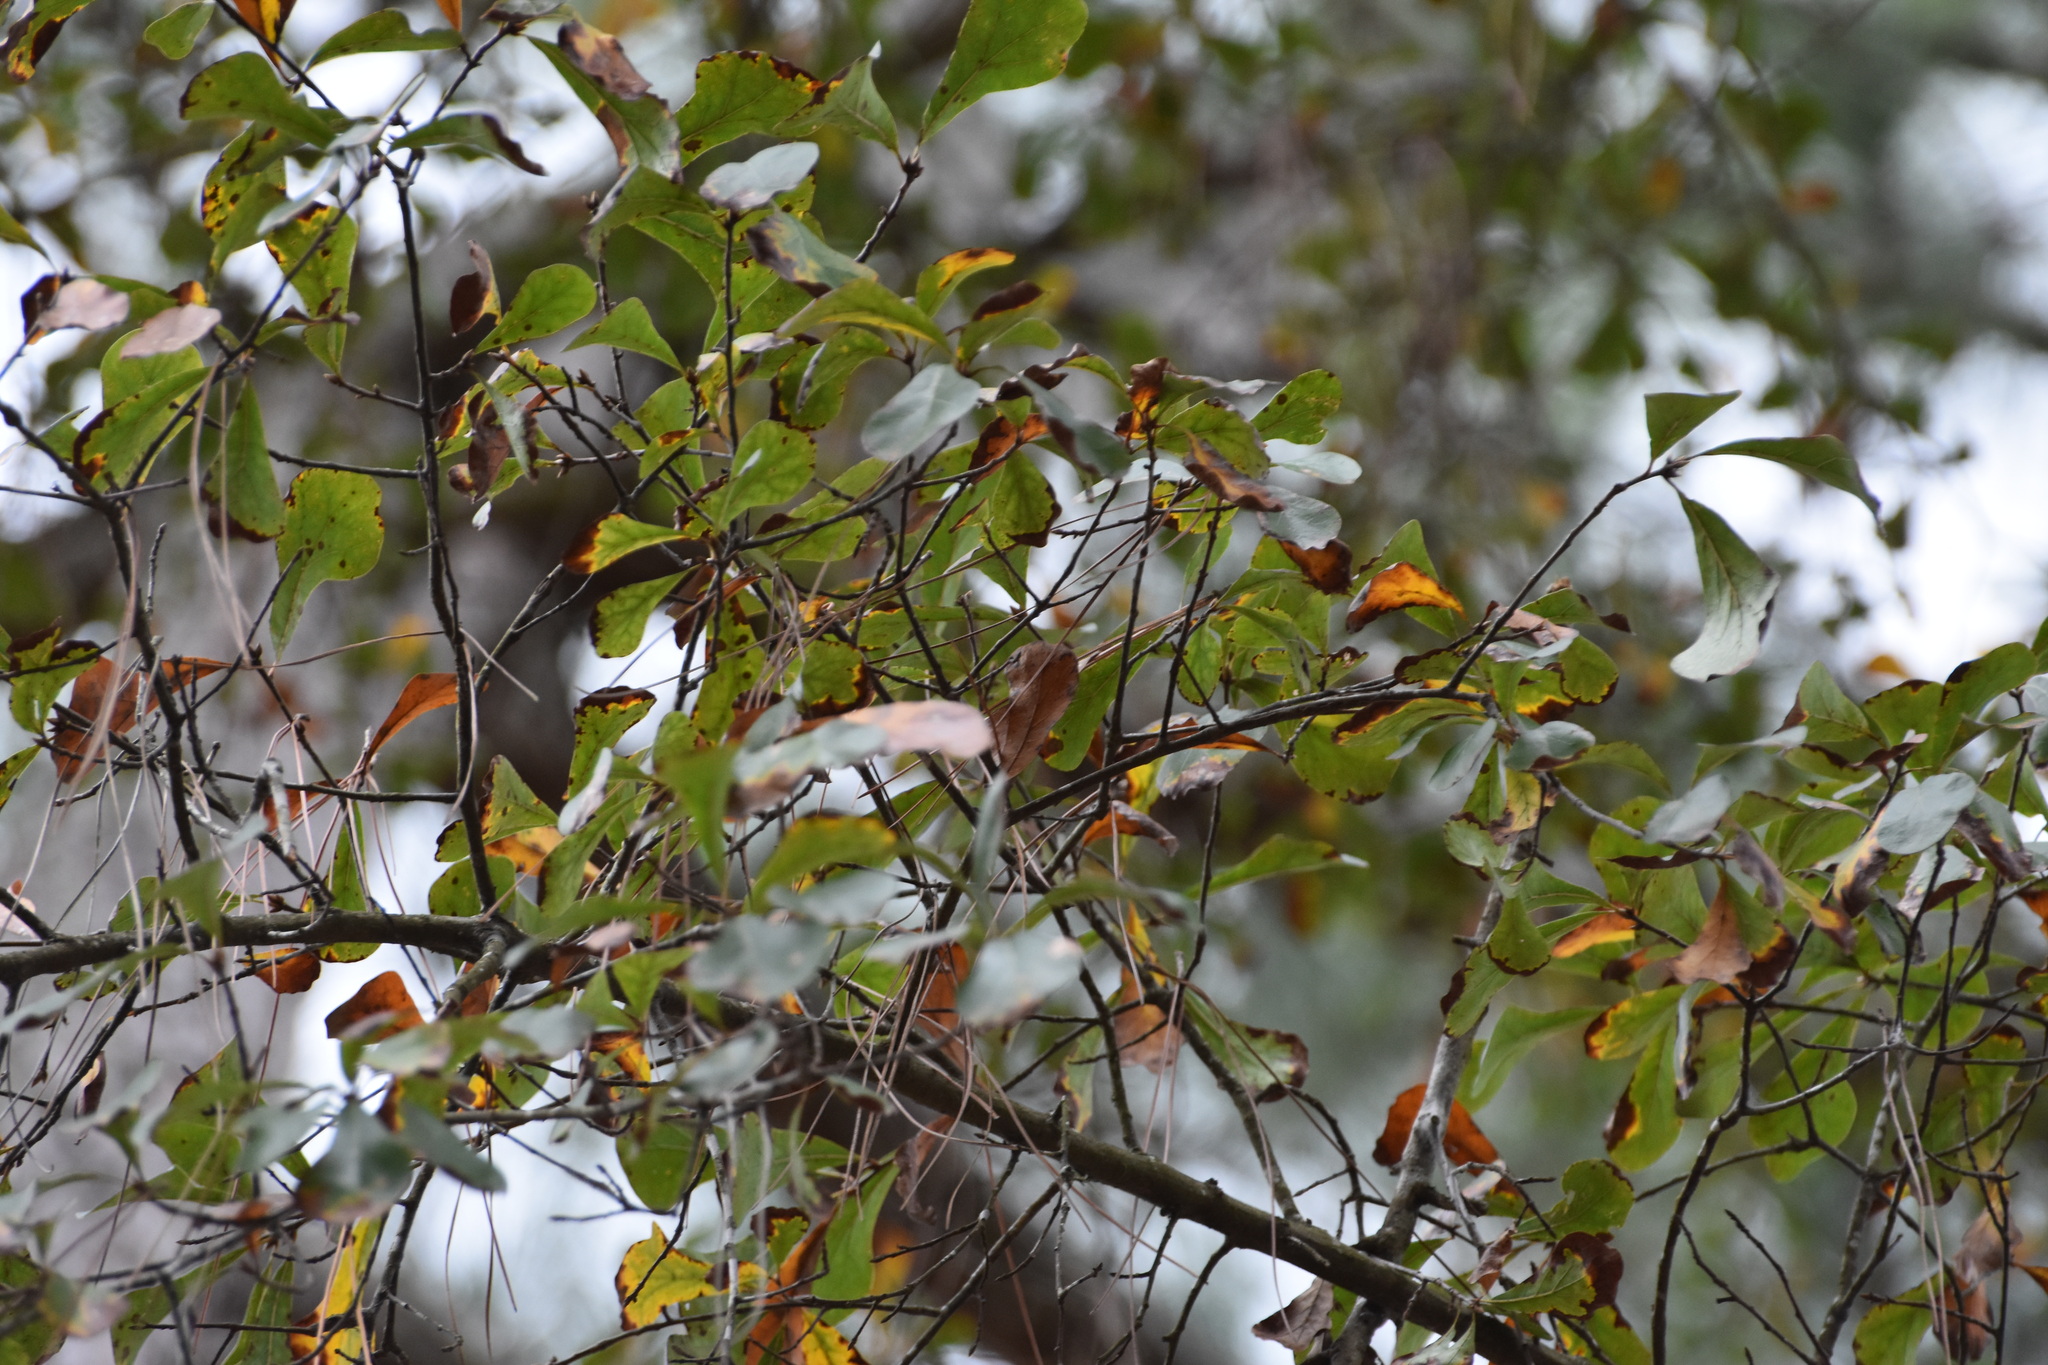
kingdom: Plantae
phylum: Tracheophyta
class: Magnoliopsida
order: Fagales
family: Fagaceae
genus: Quercus
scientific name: Quercus nigra
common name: Water oak
